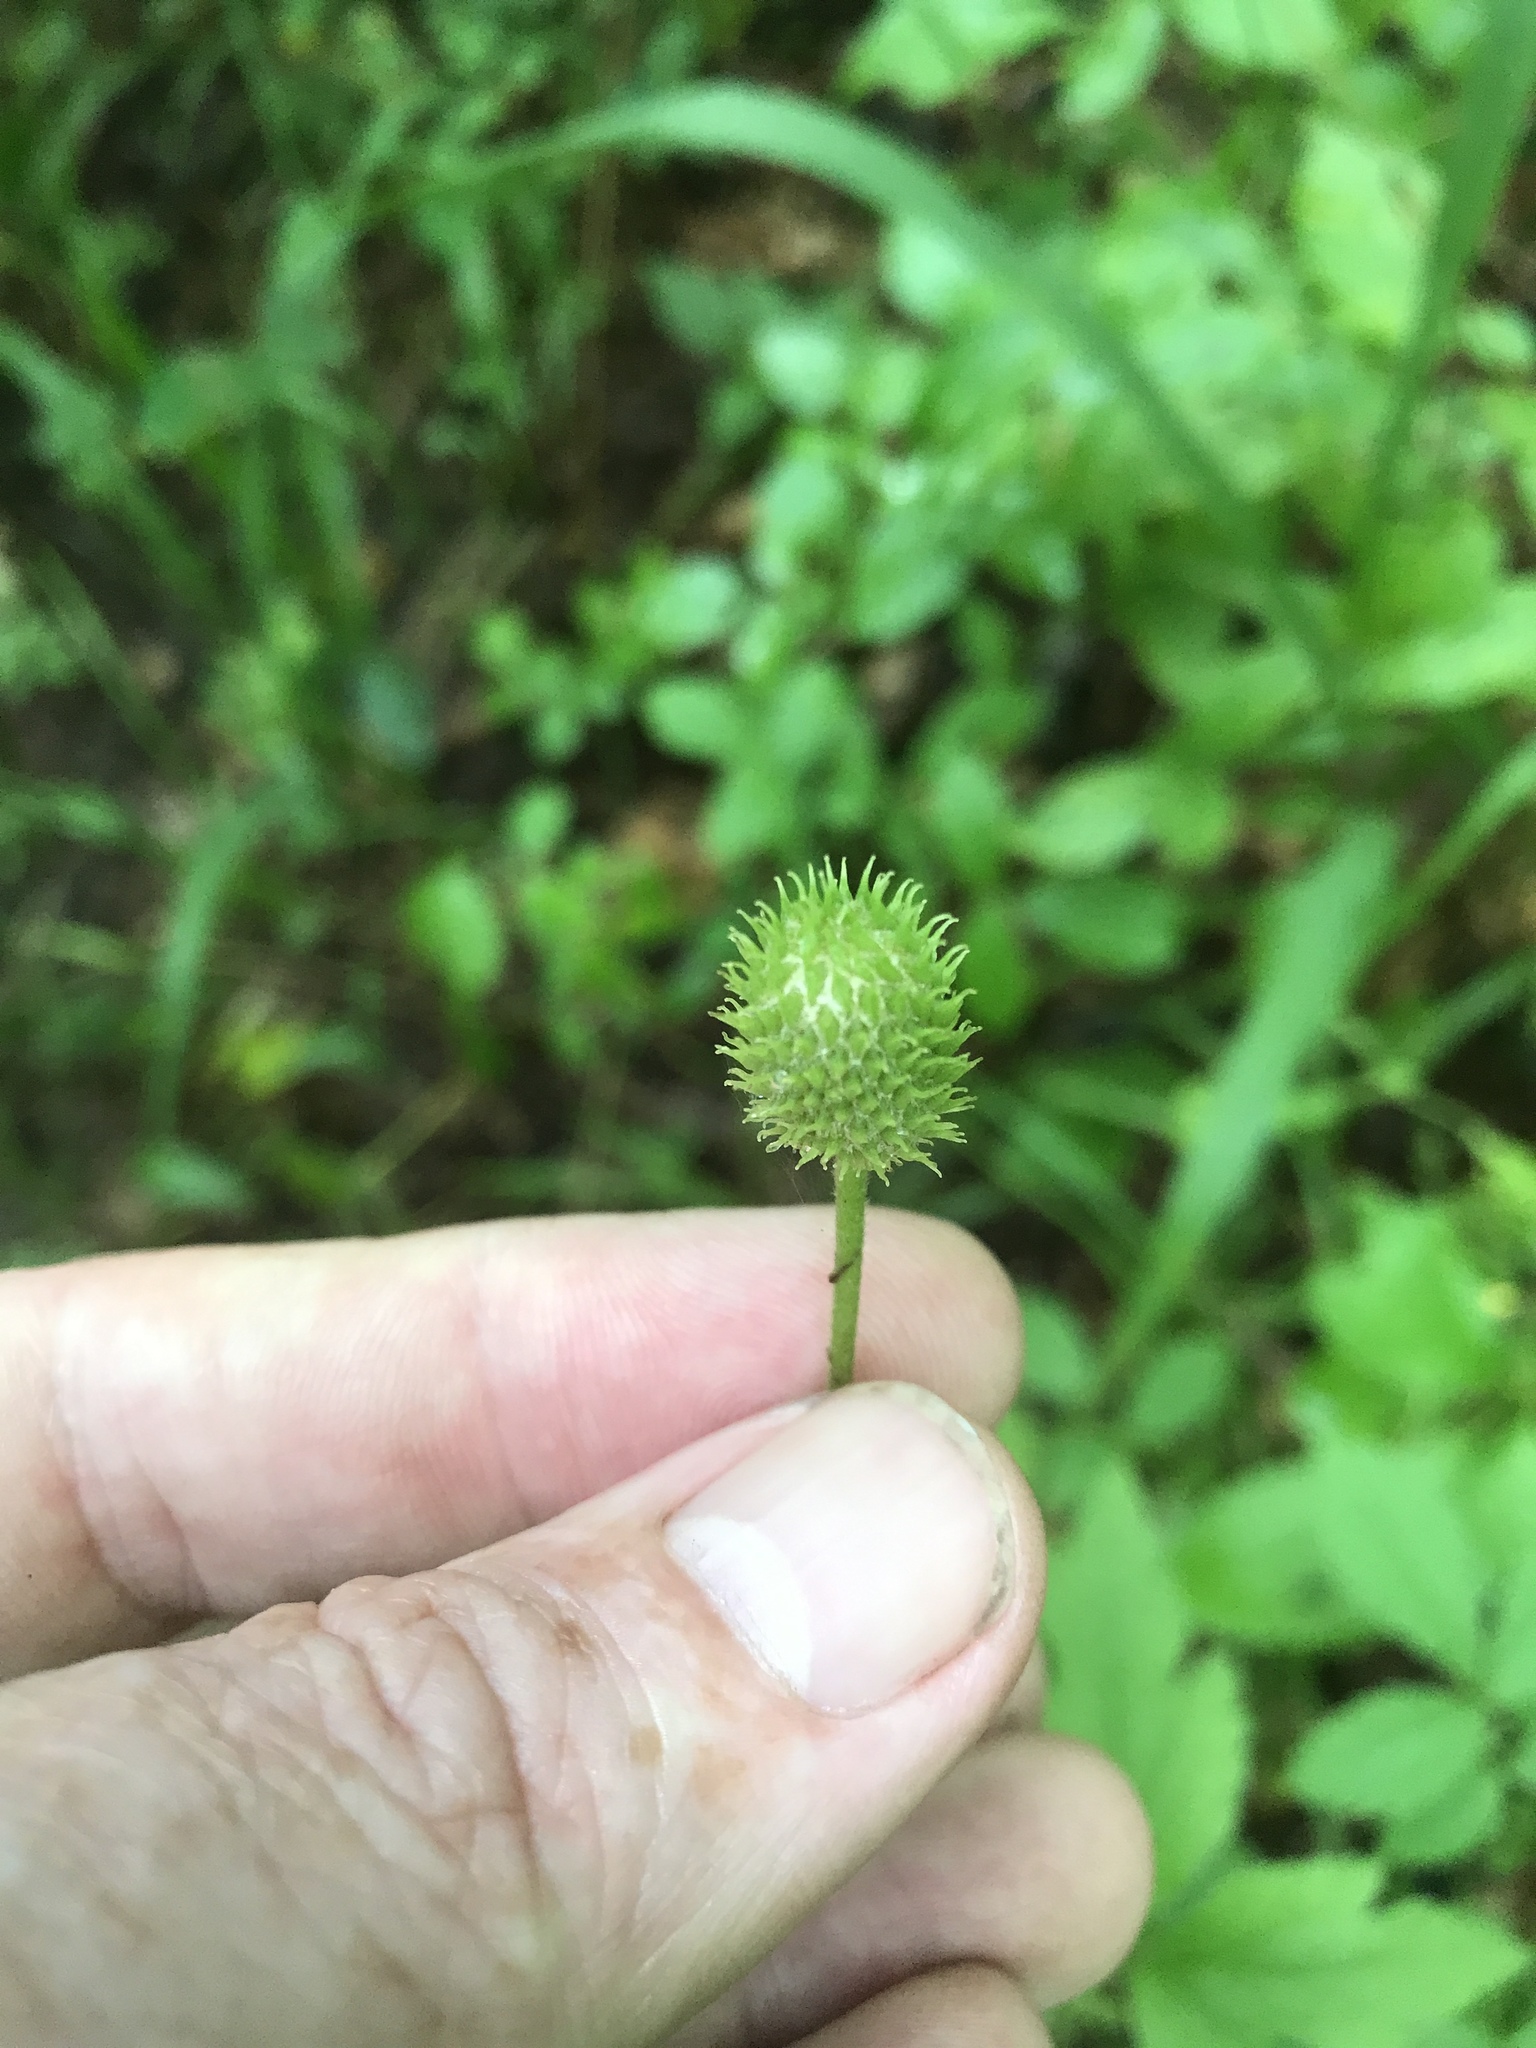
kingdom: Plantae
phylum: Tracheophyta
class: Magnoliopsida
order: Ranunculales
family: Ranunculaceae
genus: Anemone
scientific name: Anemone virginiana
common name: Tall anemone
